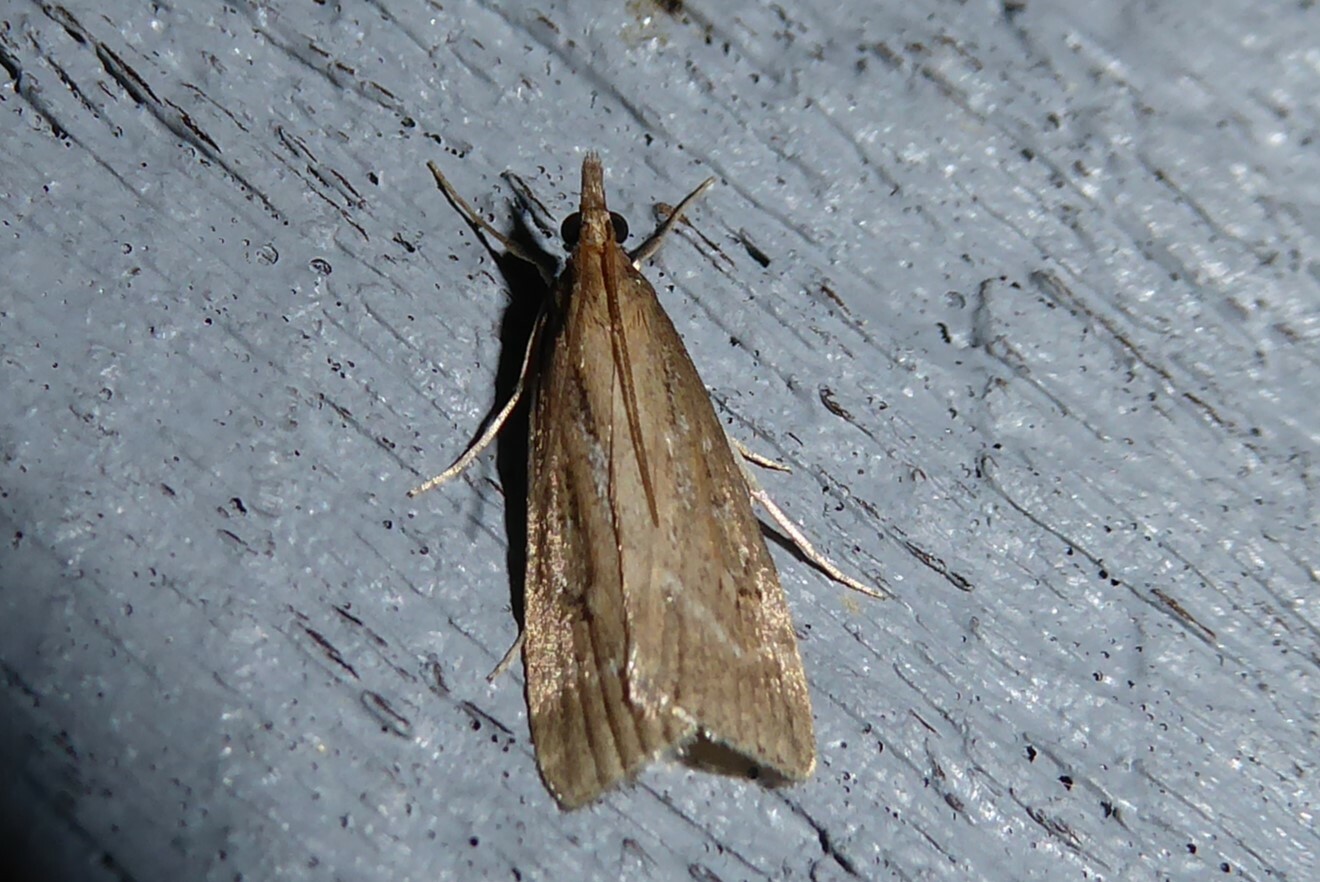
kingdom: Animalia
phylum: Arthropoda
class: Insecta
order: Lepidoptera
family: Crambidae
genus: Eudonia
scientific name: Eudonia octophora
